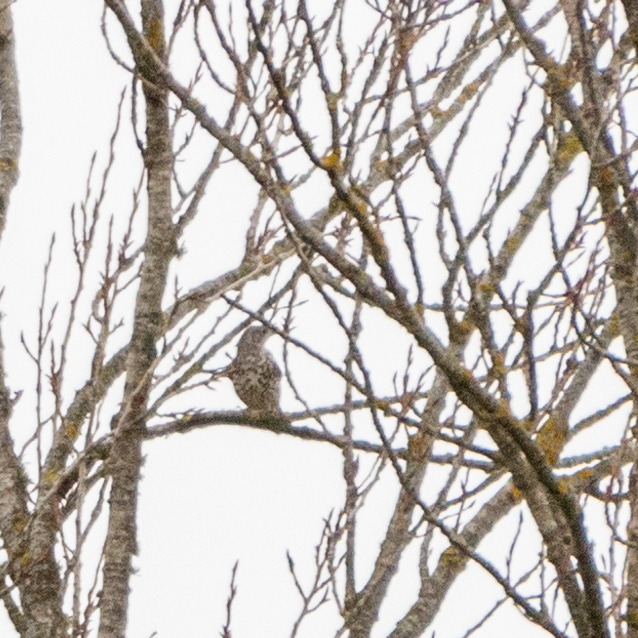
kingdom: Animalia
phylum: Chordata
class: Aves
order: Passeriformes
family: Turdidae
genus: Turdus
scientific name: Turdus viscivorus
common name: Mistle thrush
